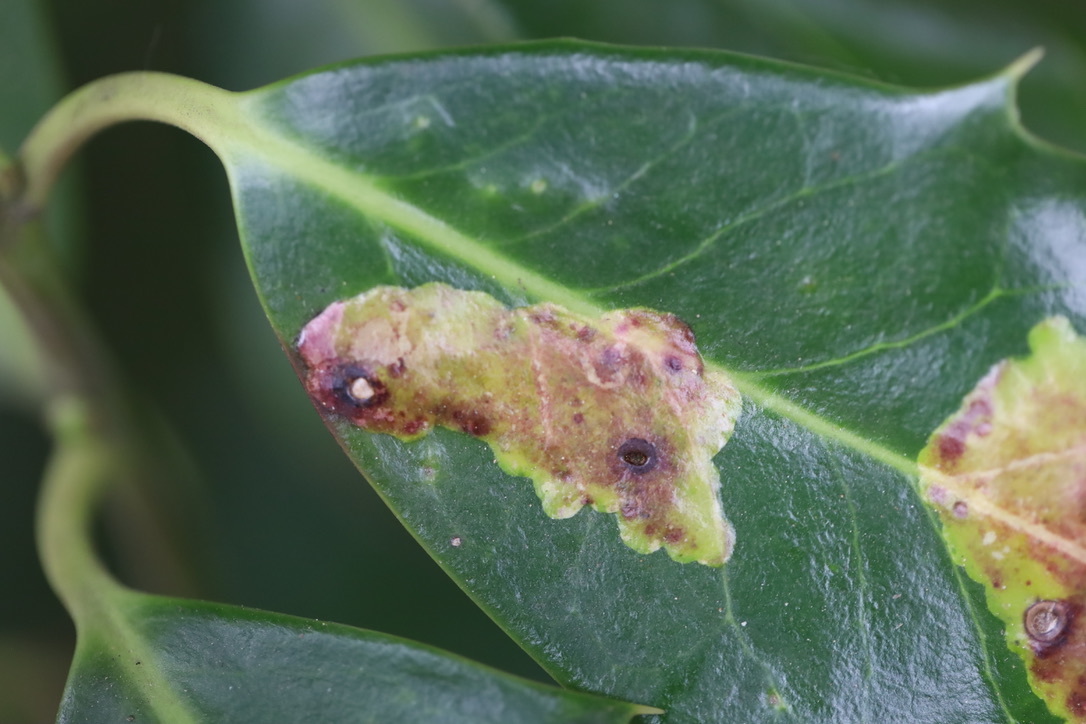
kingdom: Animalia
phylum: Arthropoda
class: Insecta
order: Diptera
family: Agromyzidae
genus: Phytomyza
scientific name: Phytomyza ilicis
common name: Holly leafminer
